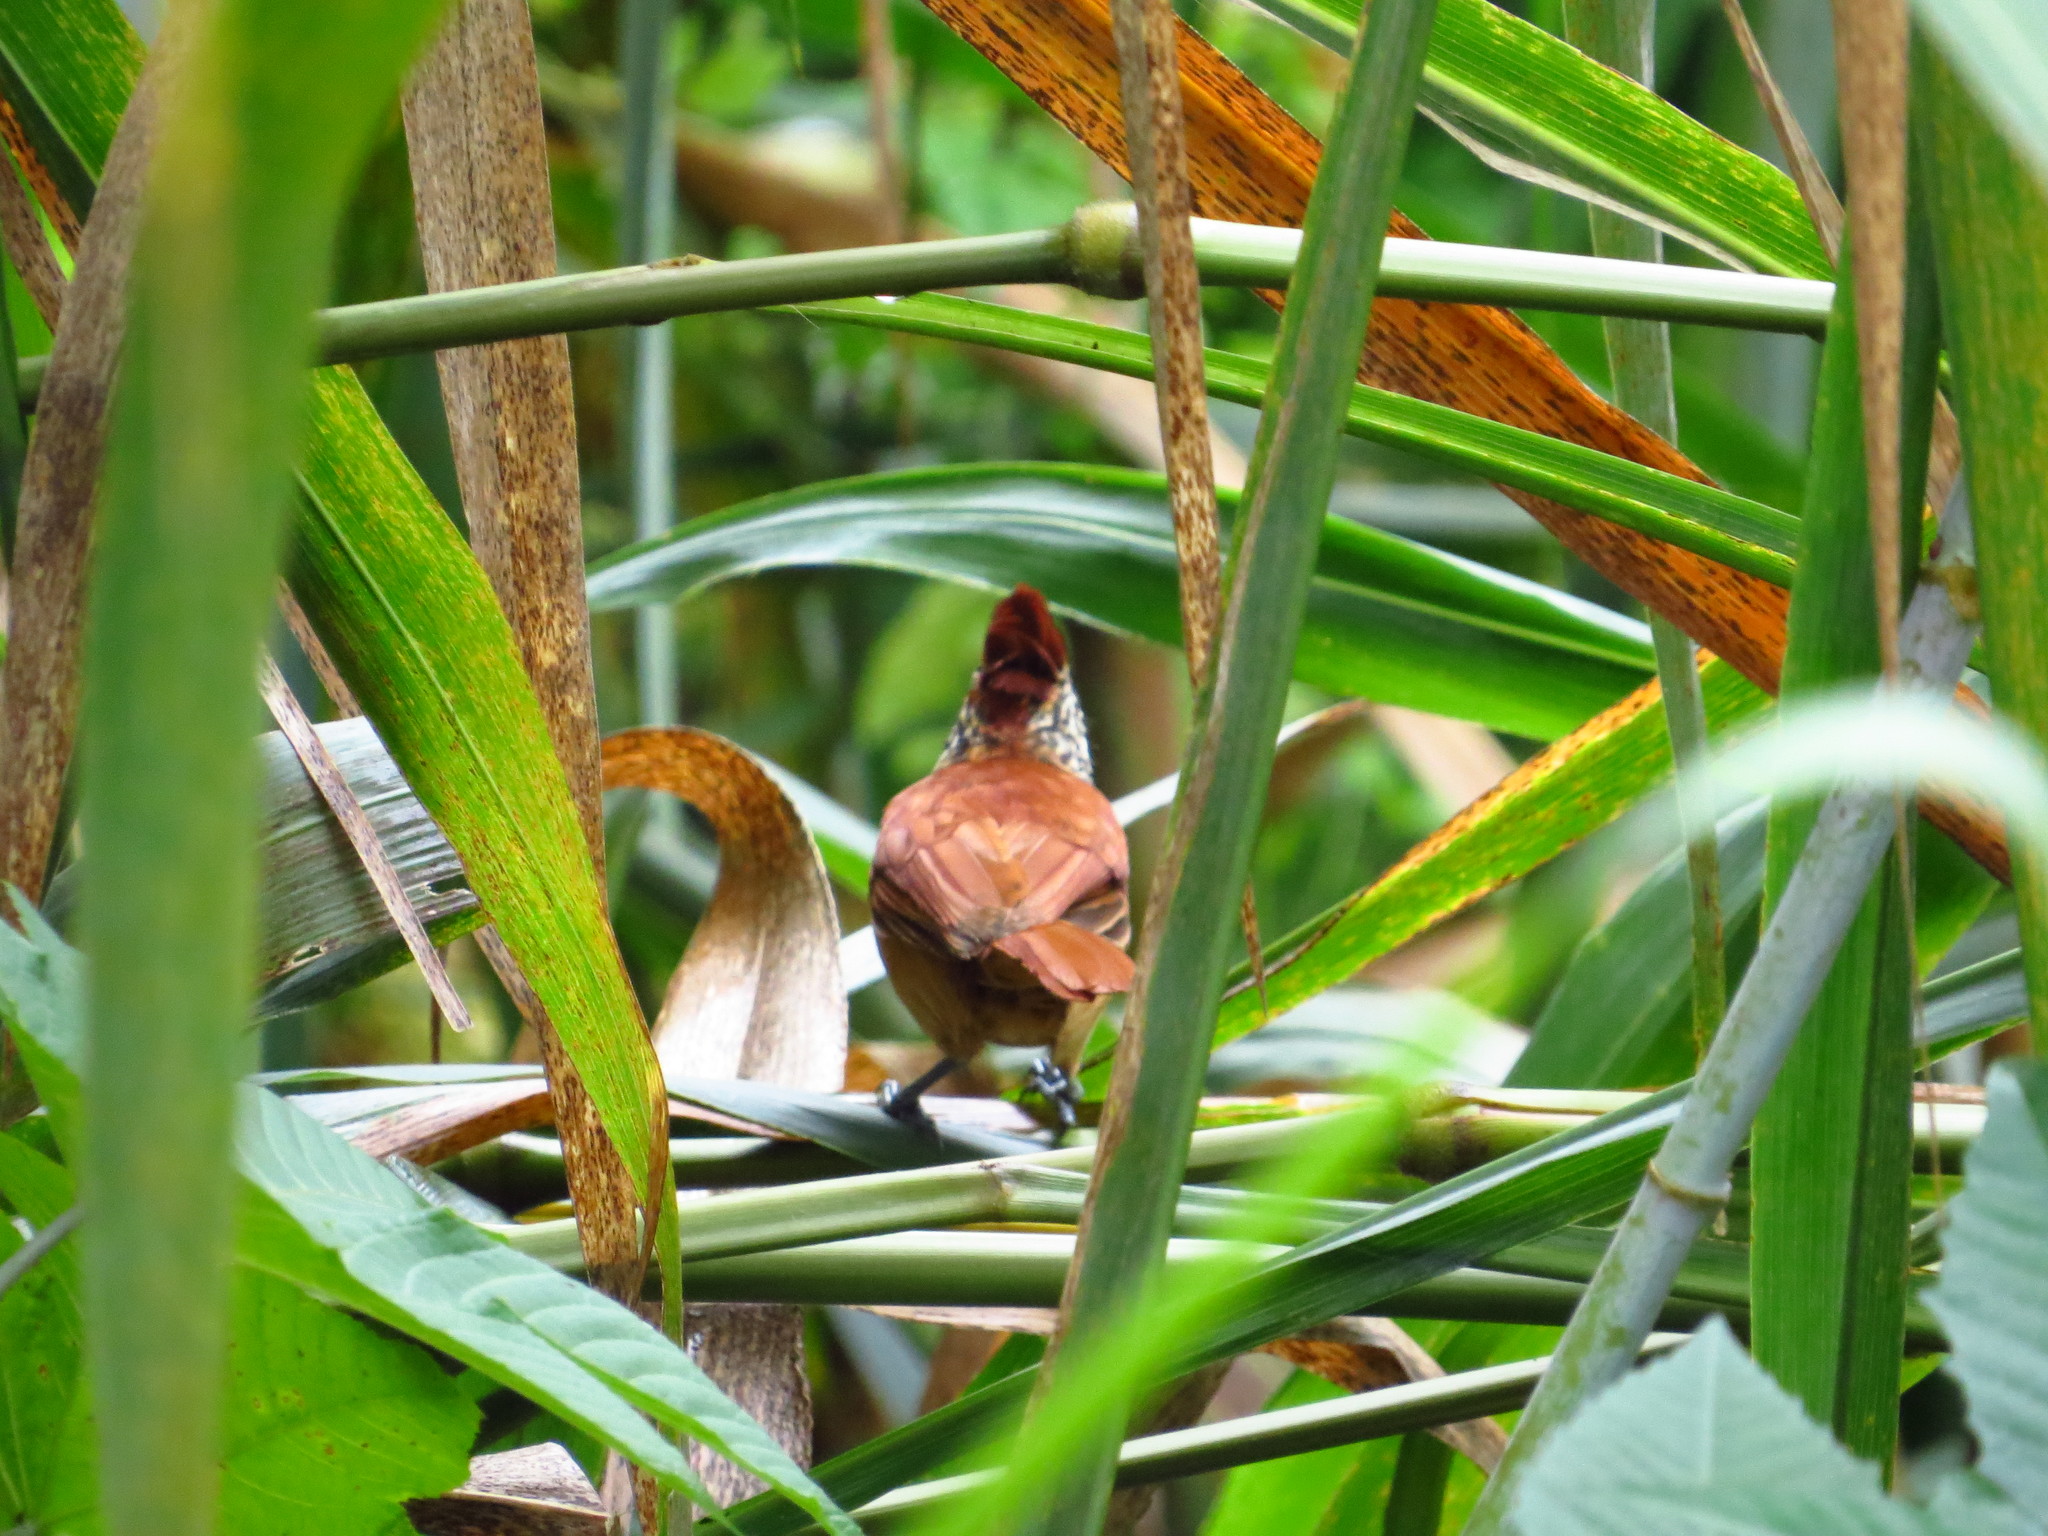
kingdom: Animalia
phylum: Chordata
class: Aves
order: Passeriformes
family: Thamnophilidae
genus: Thamnophilus
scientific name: Thamnophilus doliatus
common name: Barred antshrike
